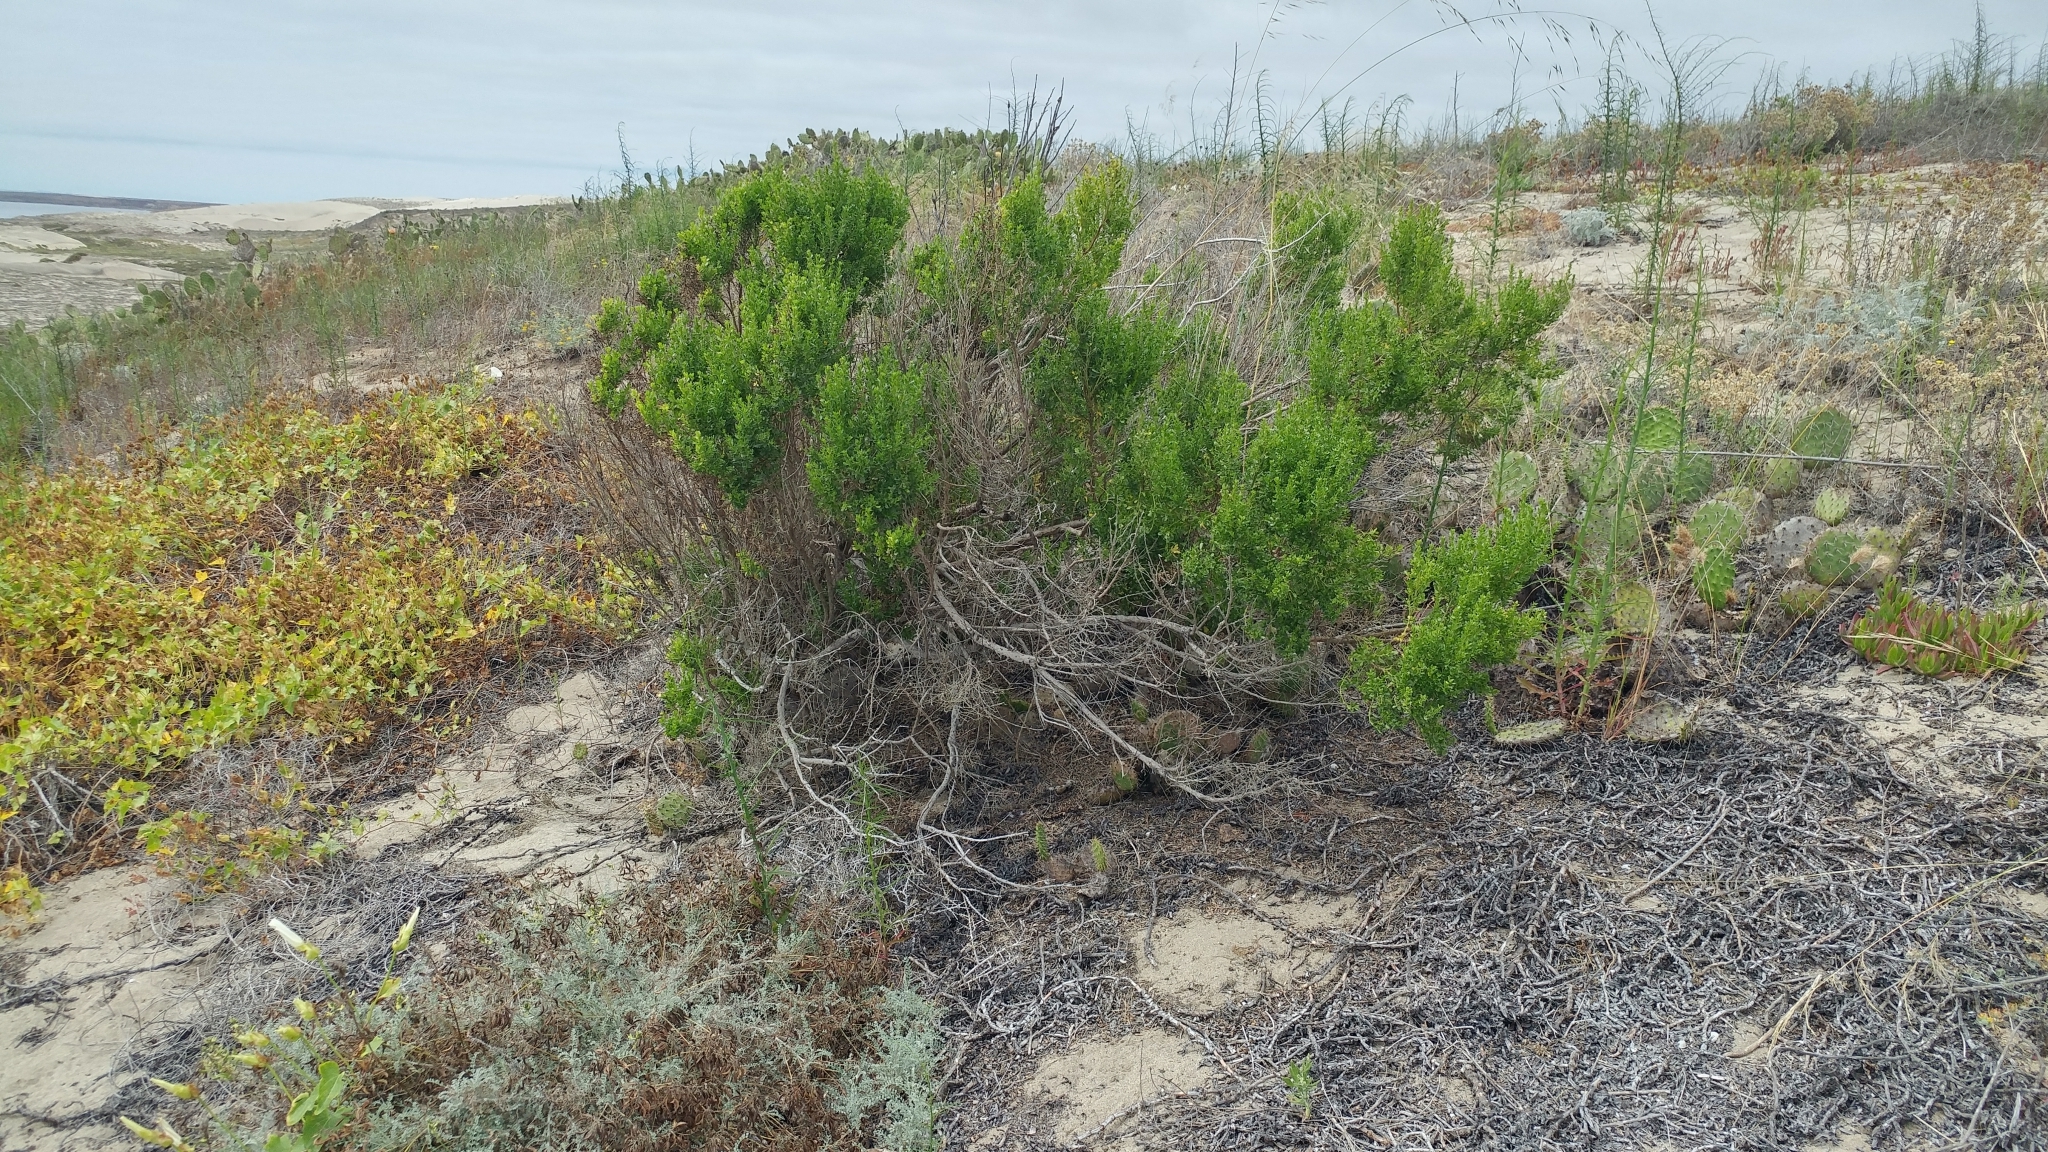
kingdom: Plantae
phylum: Tracheophyta
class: Magnoliopsida
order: Asterales
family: Asteraceae
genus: Baccharis
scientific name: Baccharis pilularis
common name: Coyotebrush
